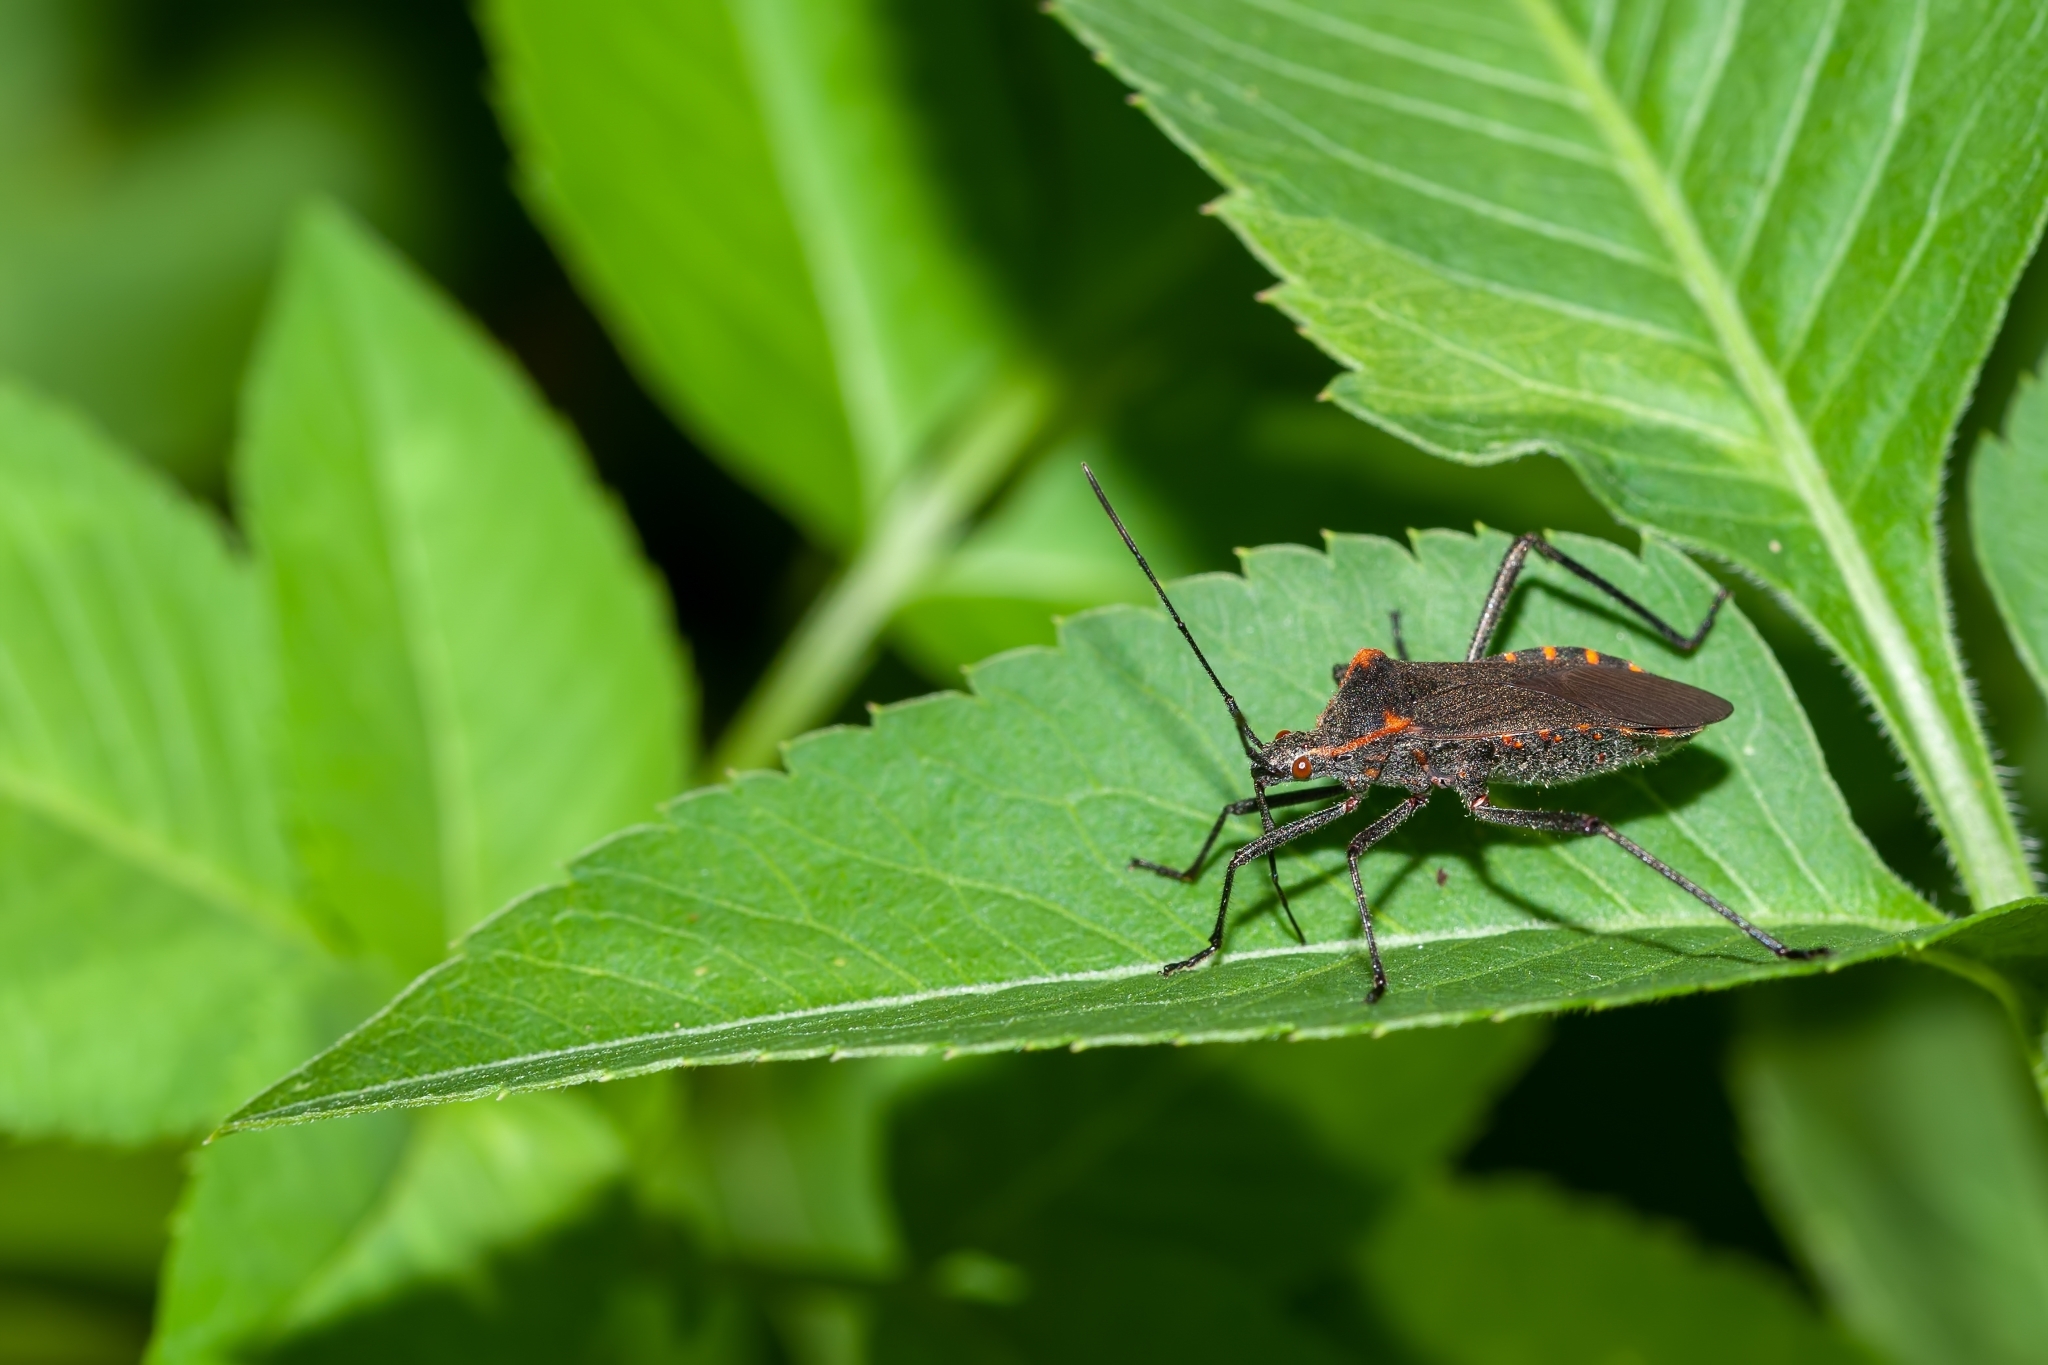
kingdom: Animalia
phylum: Arthropoda
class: Insecta
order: Hemiptera
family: Coreidae
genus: Phthiacnemia
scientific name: Phthiacnemia picta
